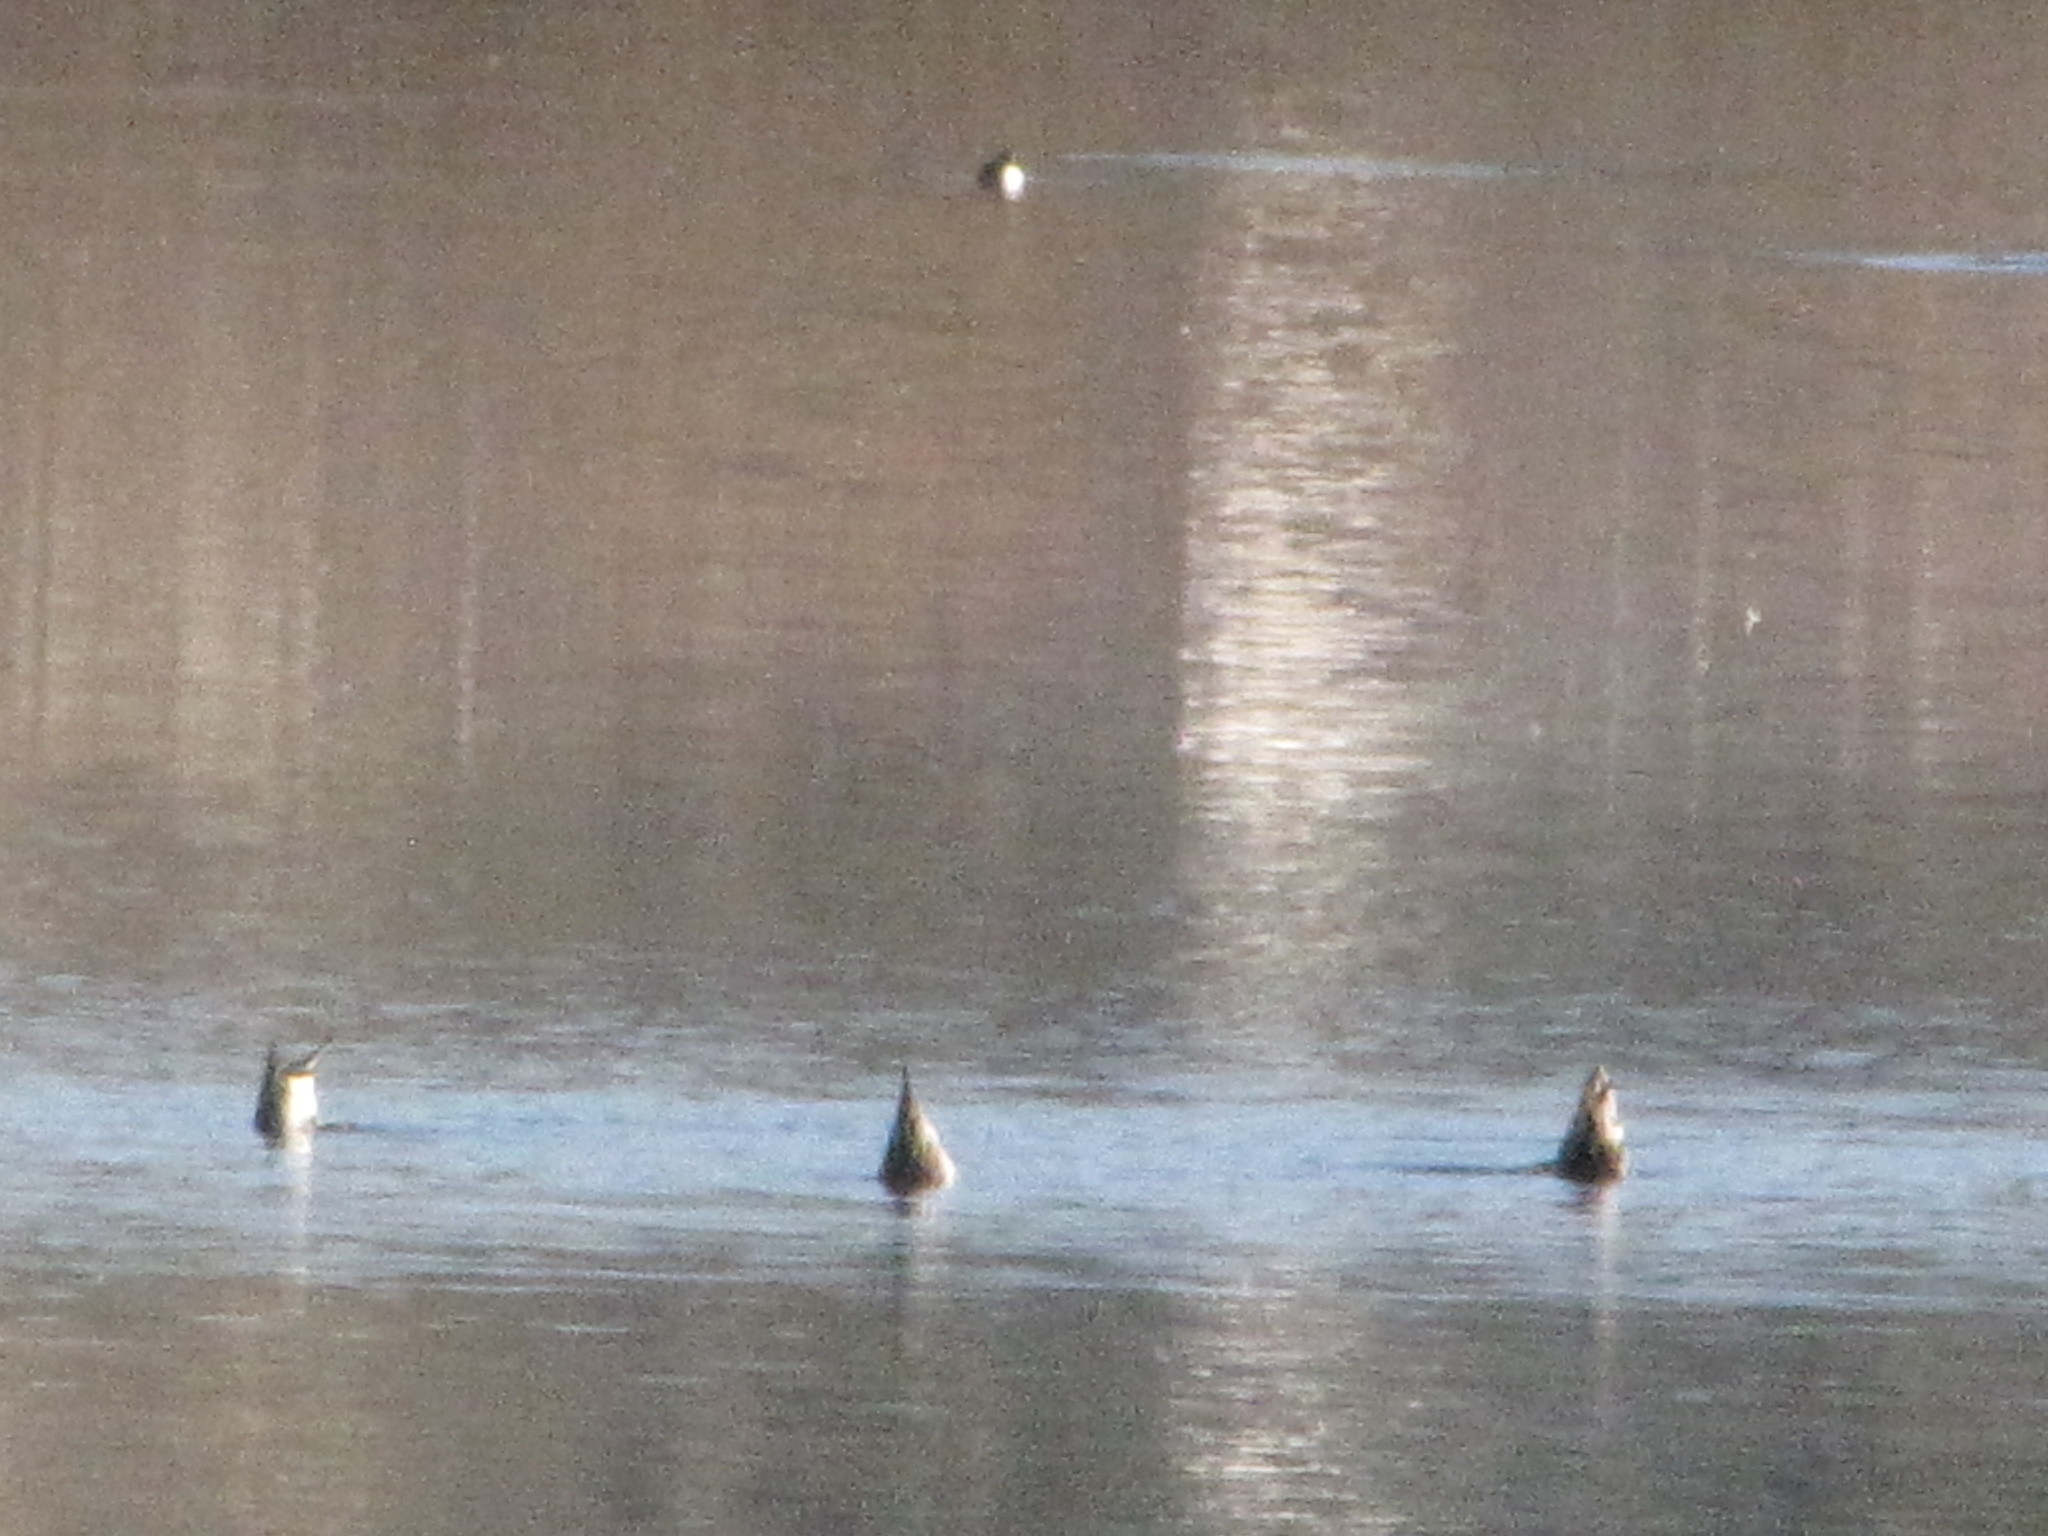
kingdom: Animalia
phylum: Chordata
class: Aves
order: Anseriformes
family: Anatidae
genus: Anas
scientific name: Anas acuta
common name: Northern pintail
